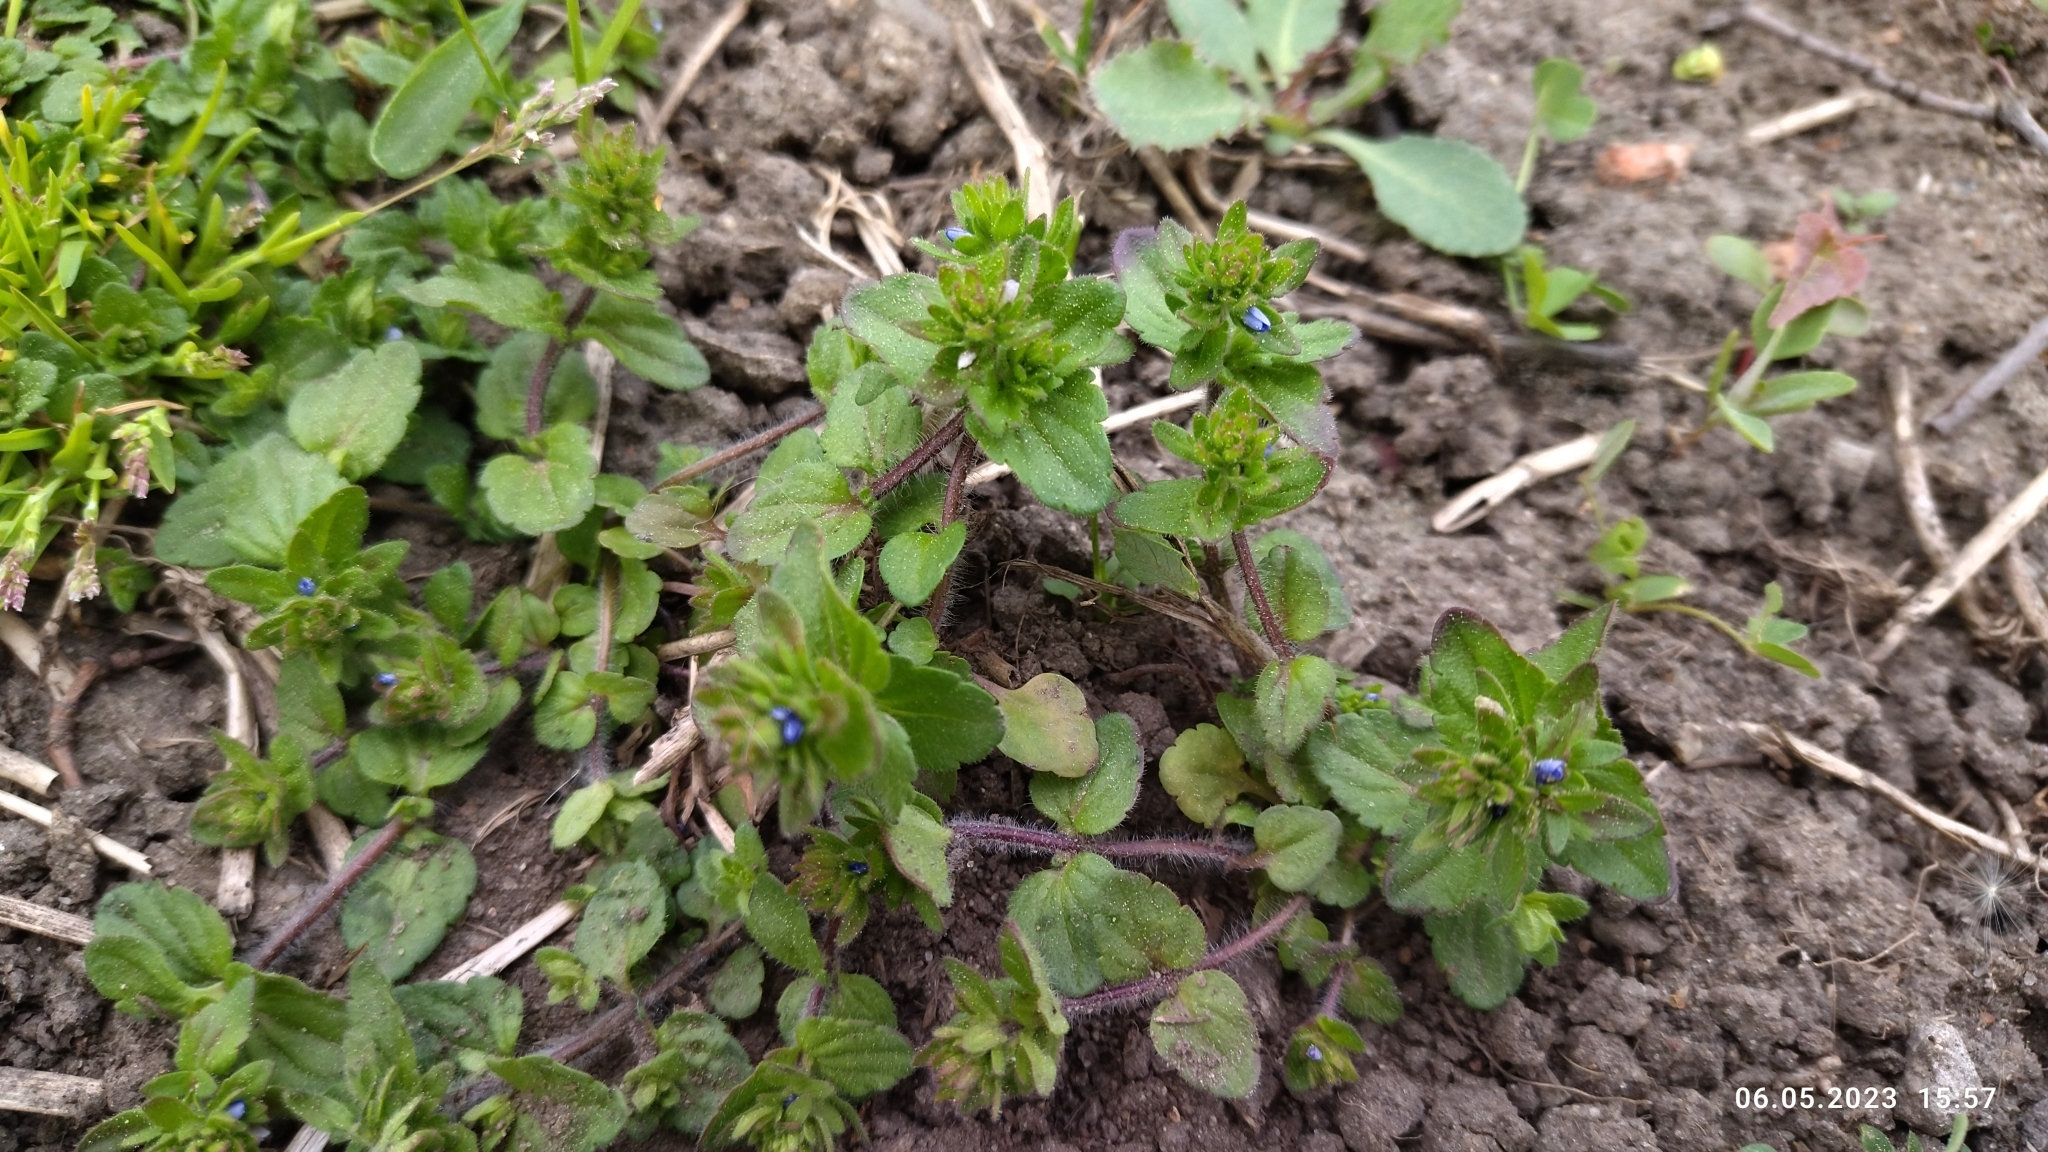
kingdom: Plantae
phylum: Tracheophyta
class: Magnoliopsida
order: Lamiales
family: Plantaginaceae
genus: Veronica
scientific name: Veronica arvensis
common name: Corn speedwell
